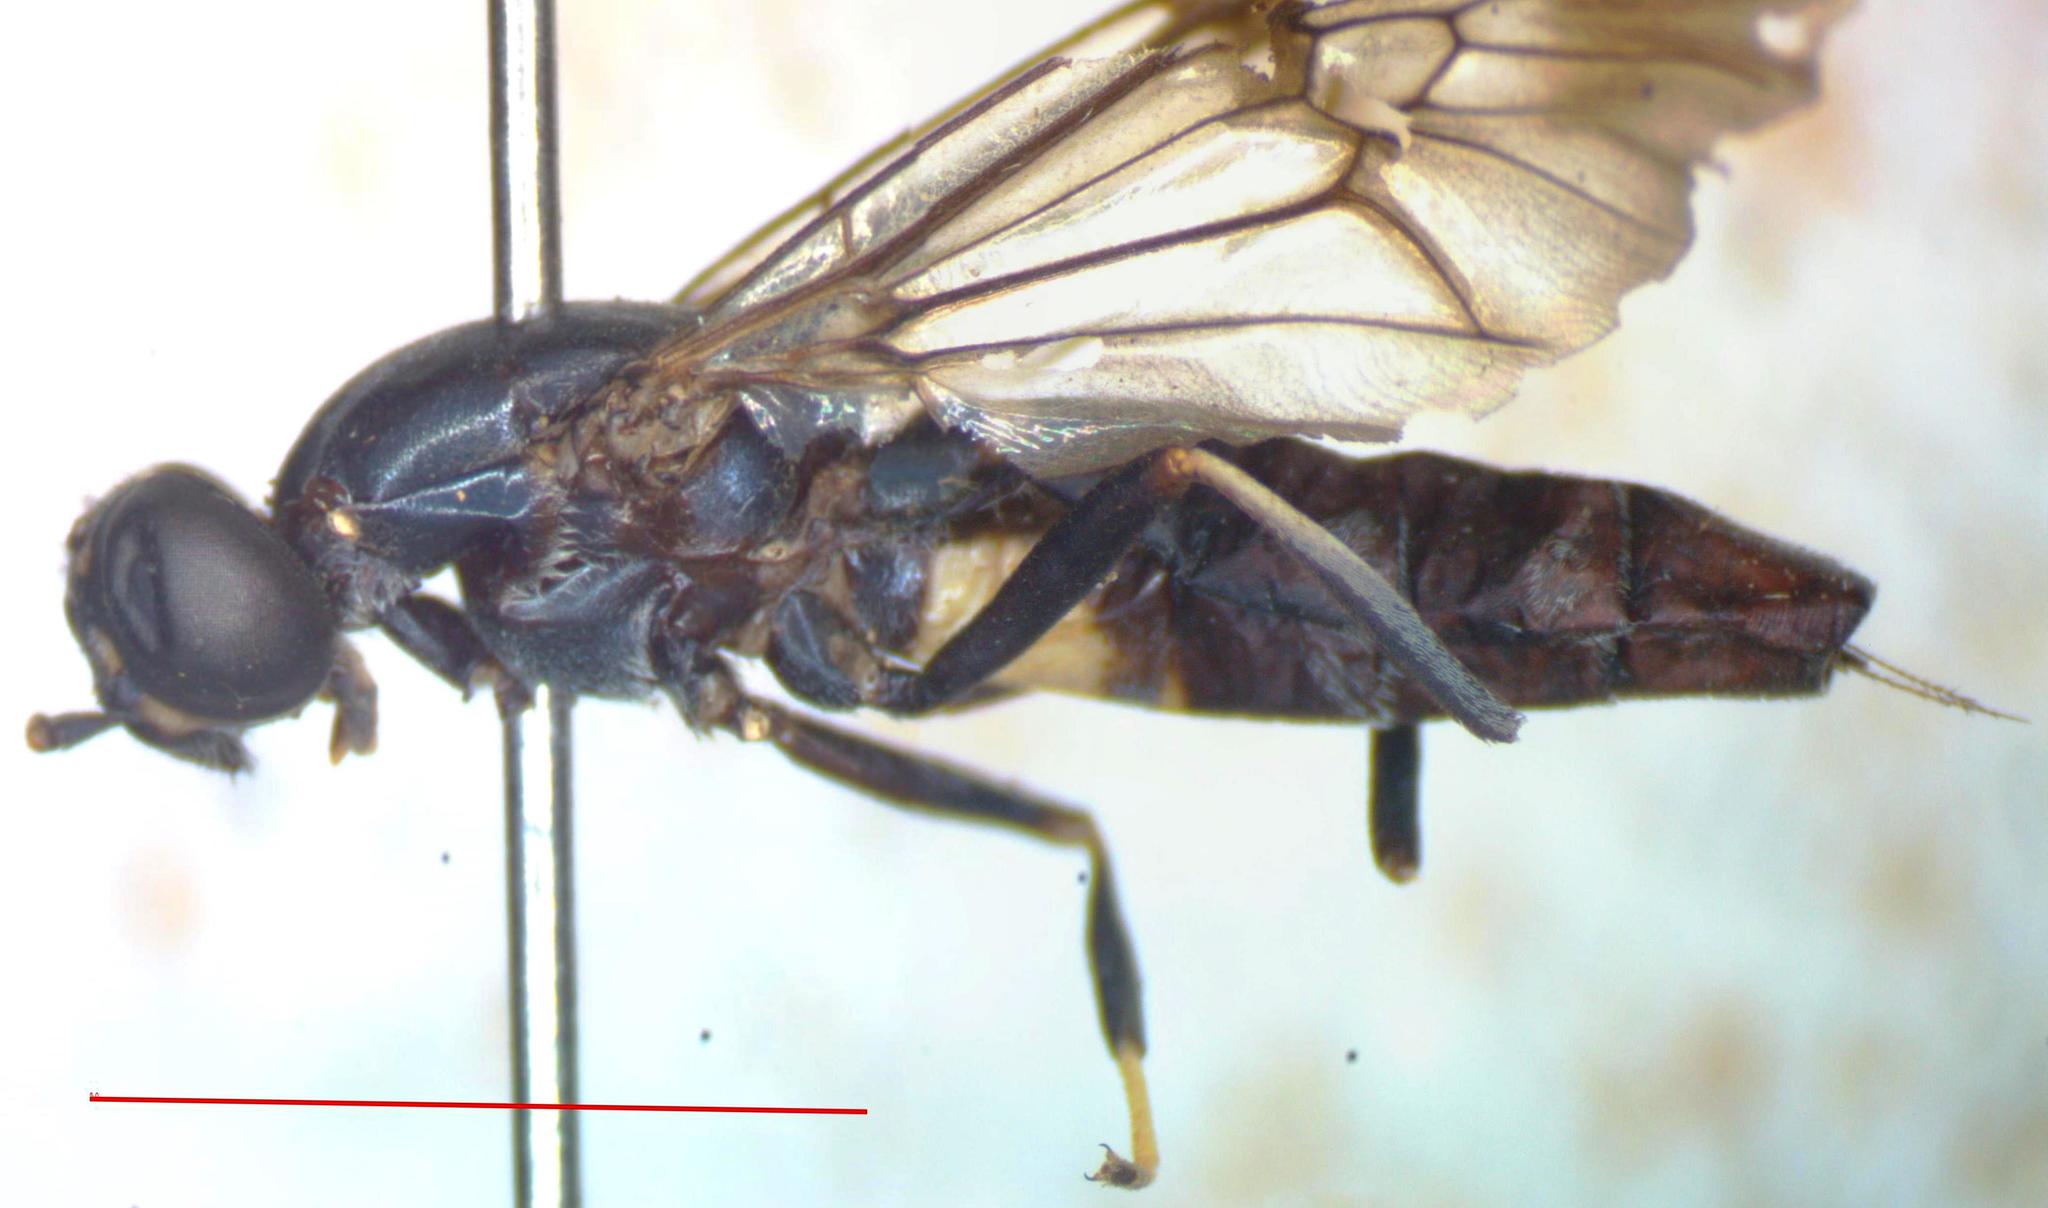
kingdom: Animalia
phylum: Arthropoda
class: Insecta
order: Diptera
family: Stratiomyidae
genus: Hermetia
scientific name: Hermetia albitarsis
